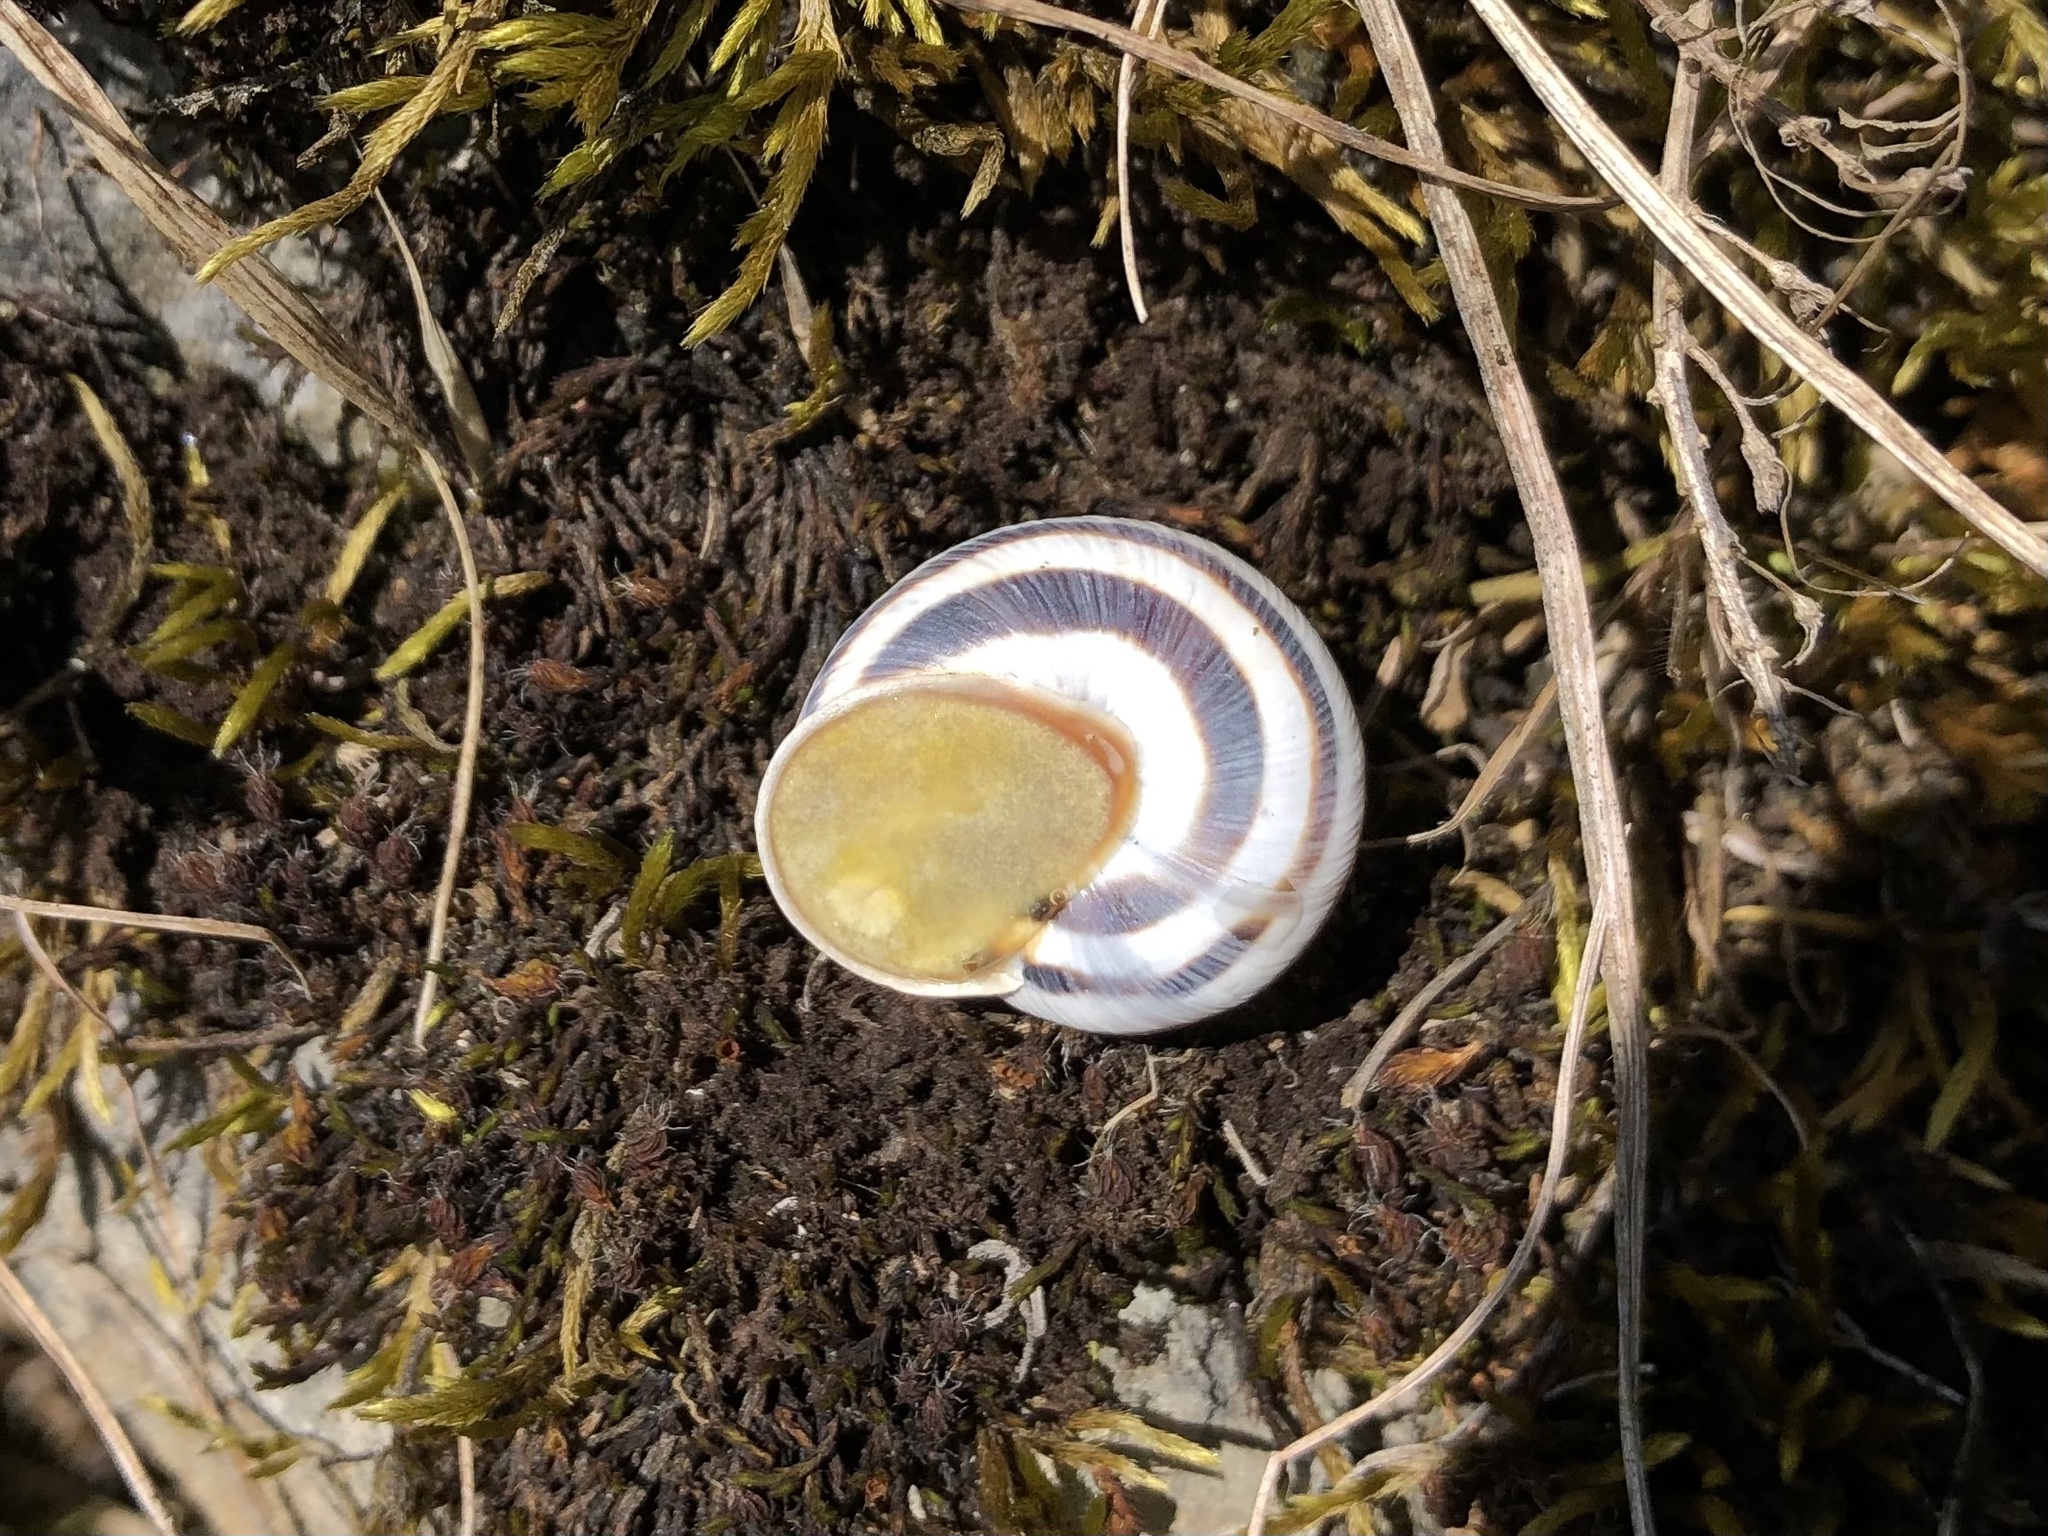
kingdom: Animalia
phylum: Mollusca
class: Gastropoda
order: Stylommatophora
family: Helicidae
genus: Caucasotachea
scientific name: Caucasotachea vindobonensis
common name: European helicid land snail
